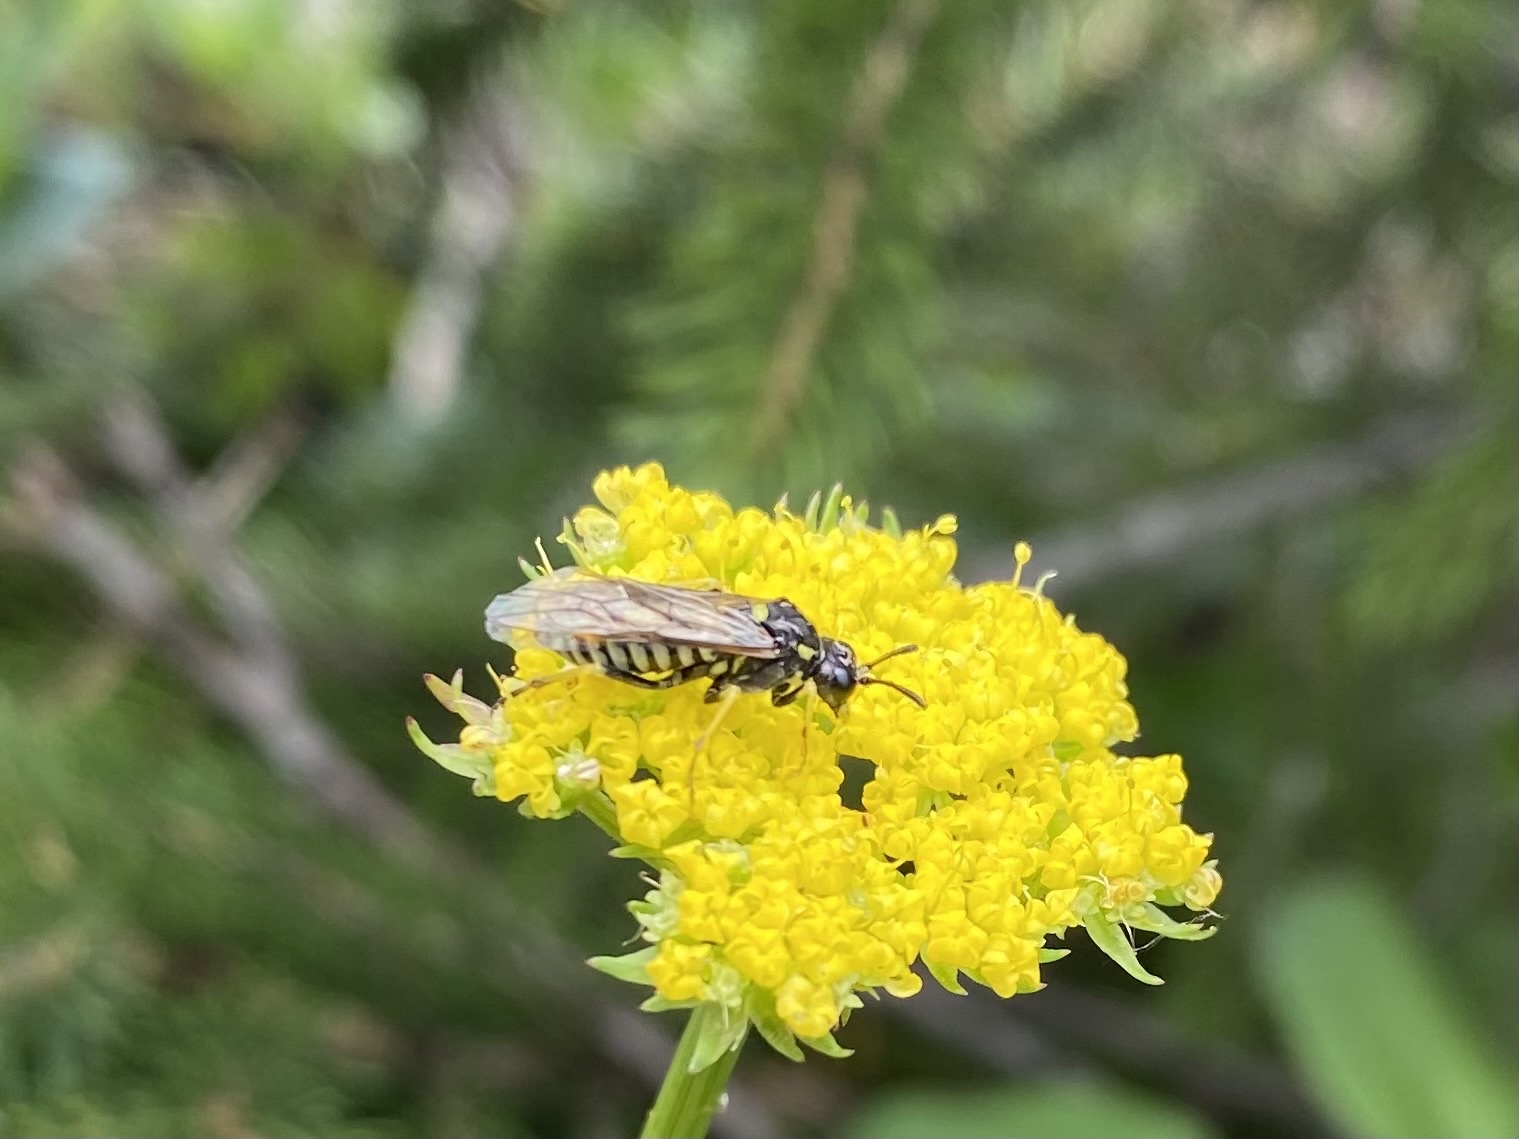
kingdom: Animalia
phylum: Arthropoda
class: Insecta
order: Hymenoptera
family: Tenthredinidae
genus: Tenthredo
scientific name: Tenthredo
